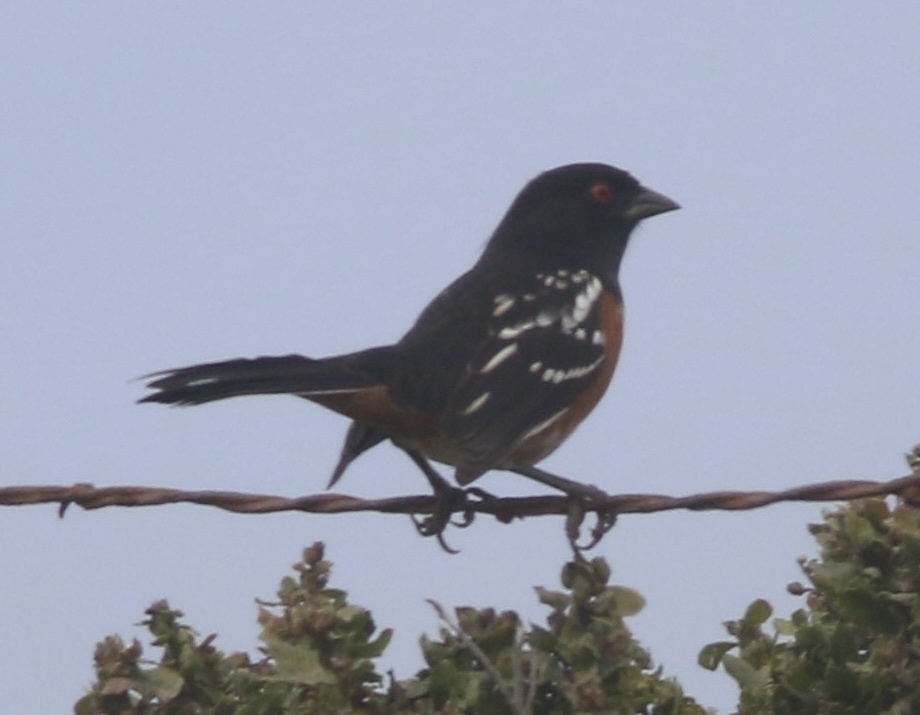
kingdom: Animalia
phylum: Chordata
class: Aves
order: Passeriformes
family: Passerellidae
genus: Pipilo
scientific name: Pipilo maculatus
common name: Spotted towhee
